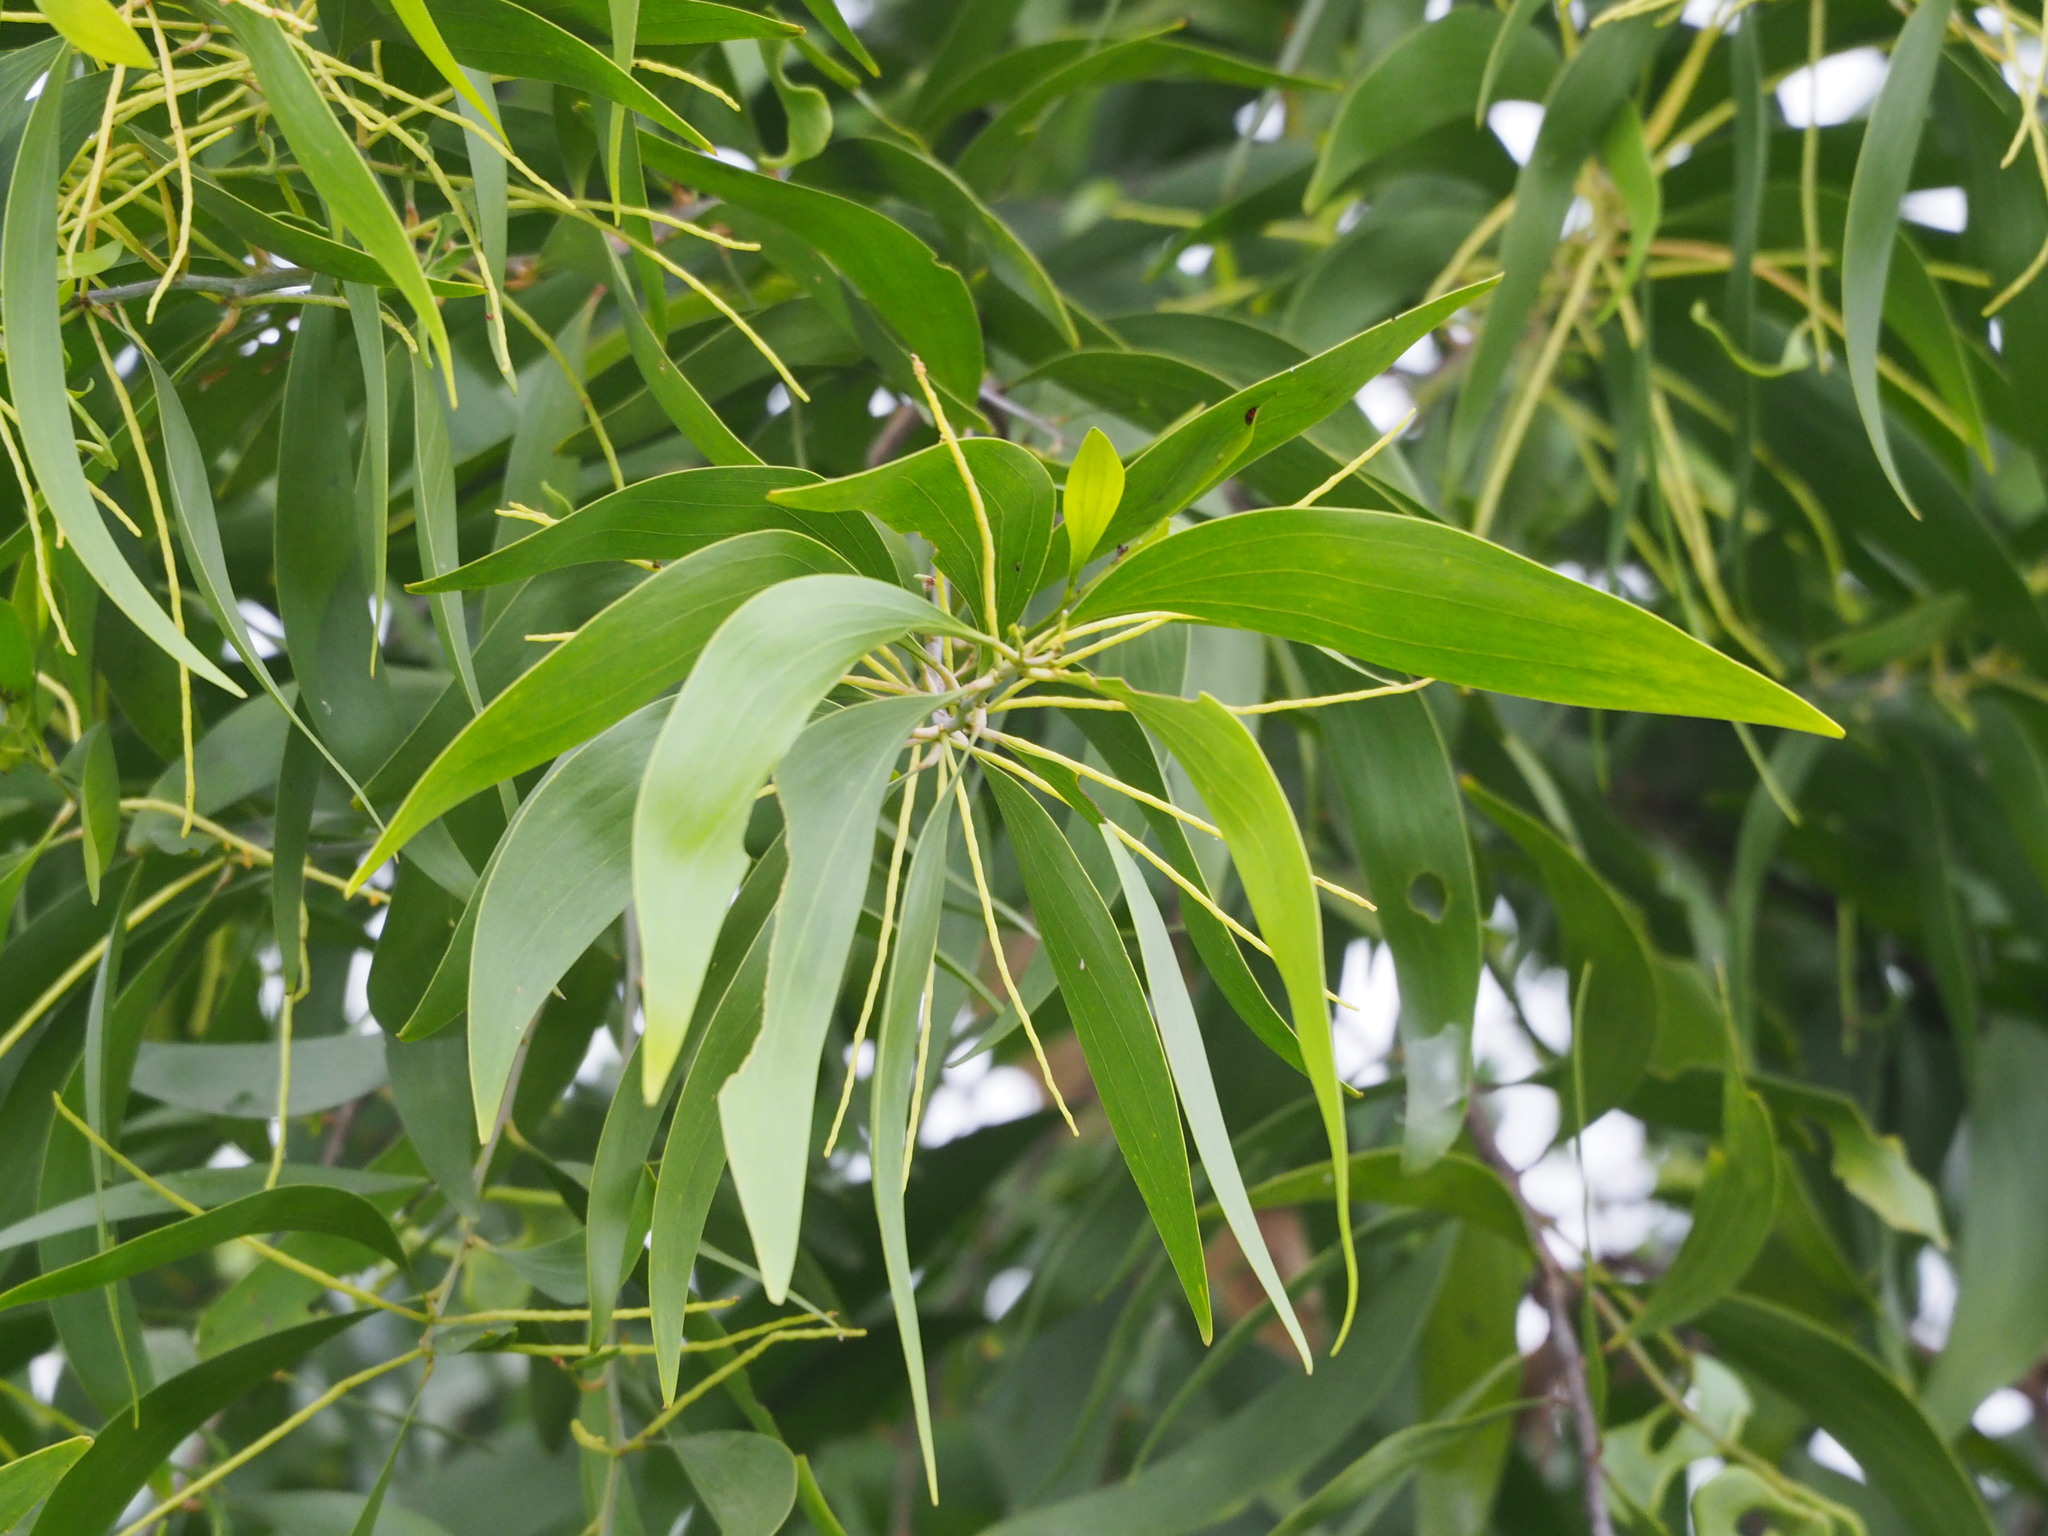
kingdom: Plantae
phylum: Tracheophyta
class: Magnoliopsida
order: Fabales
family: Fabaceae
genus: Acacia
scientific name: Acacia auriculiformis
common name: Earleaf acacia
